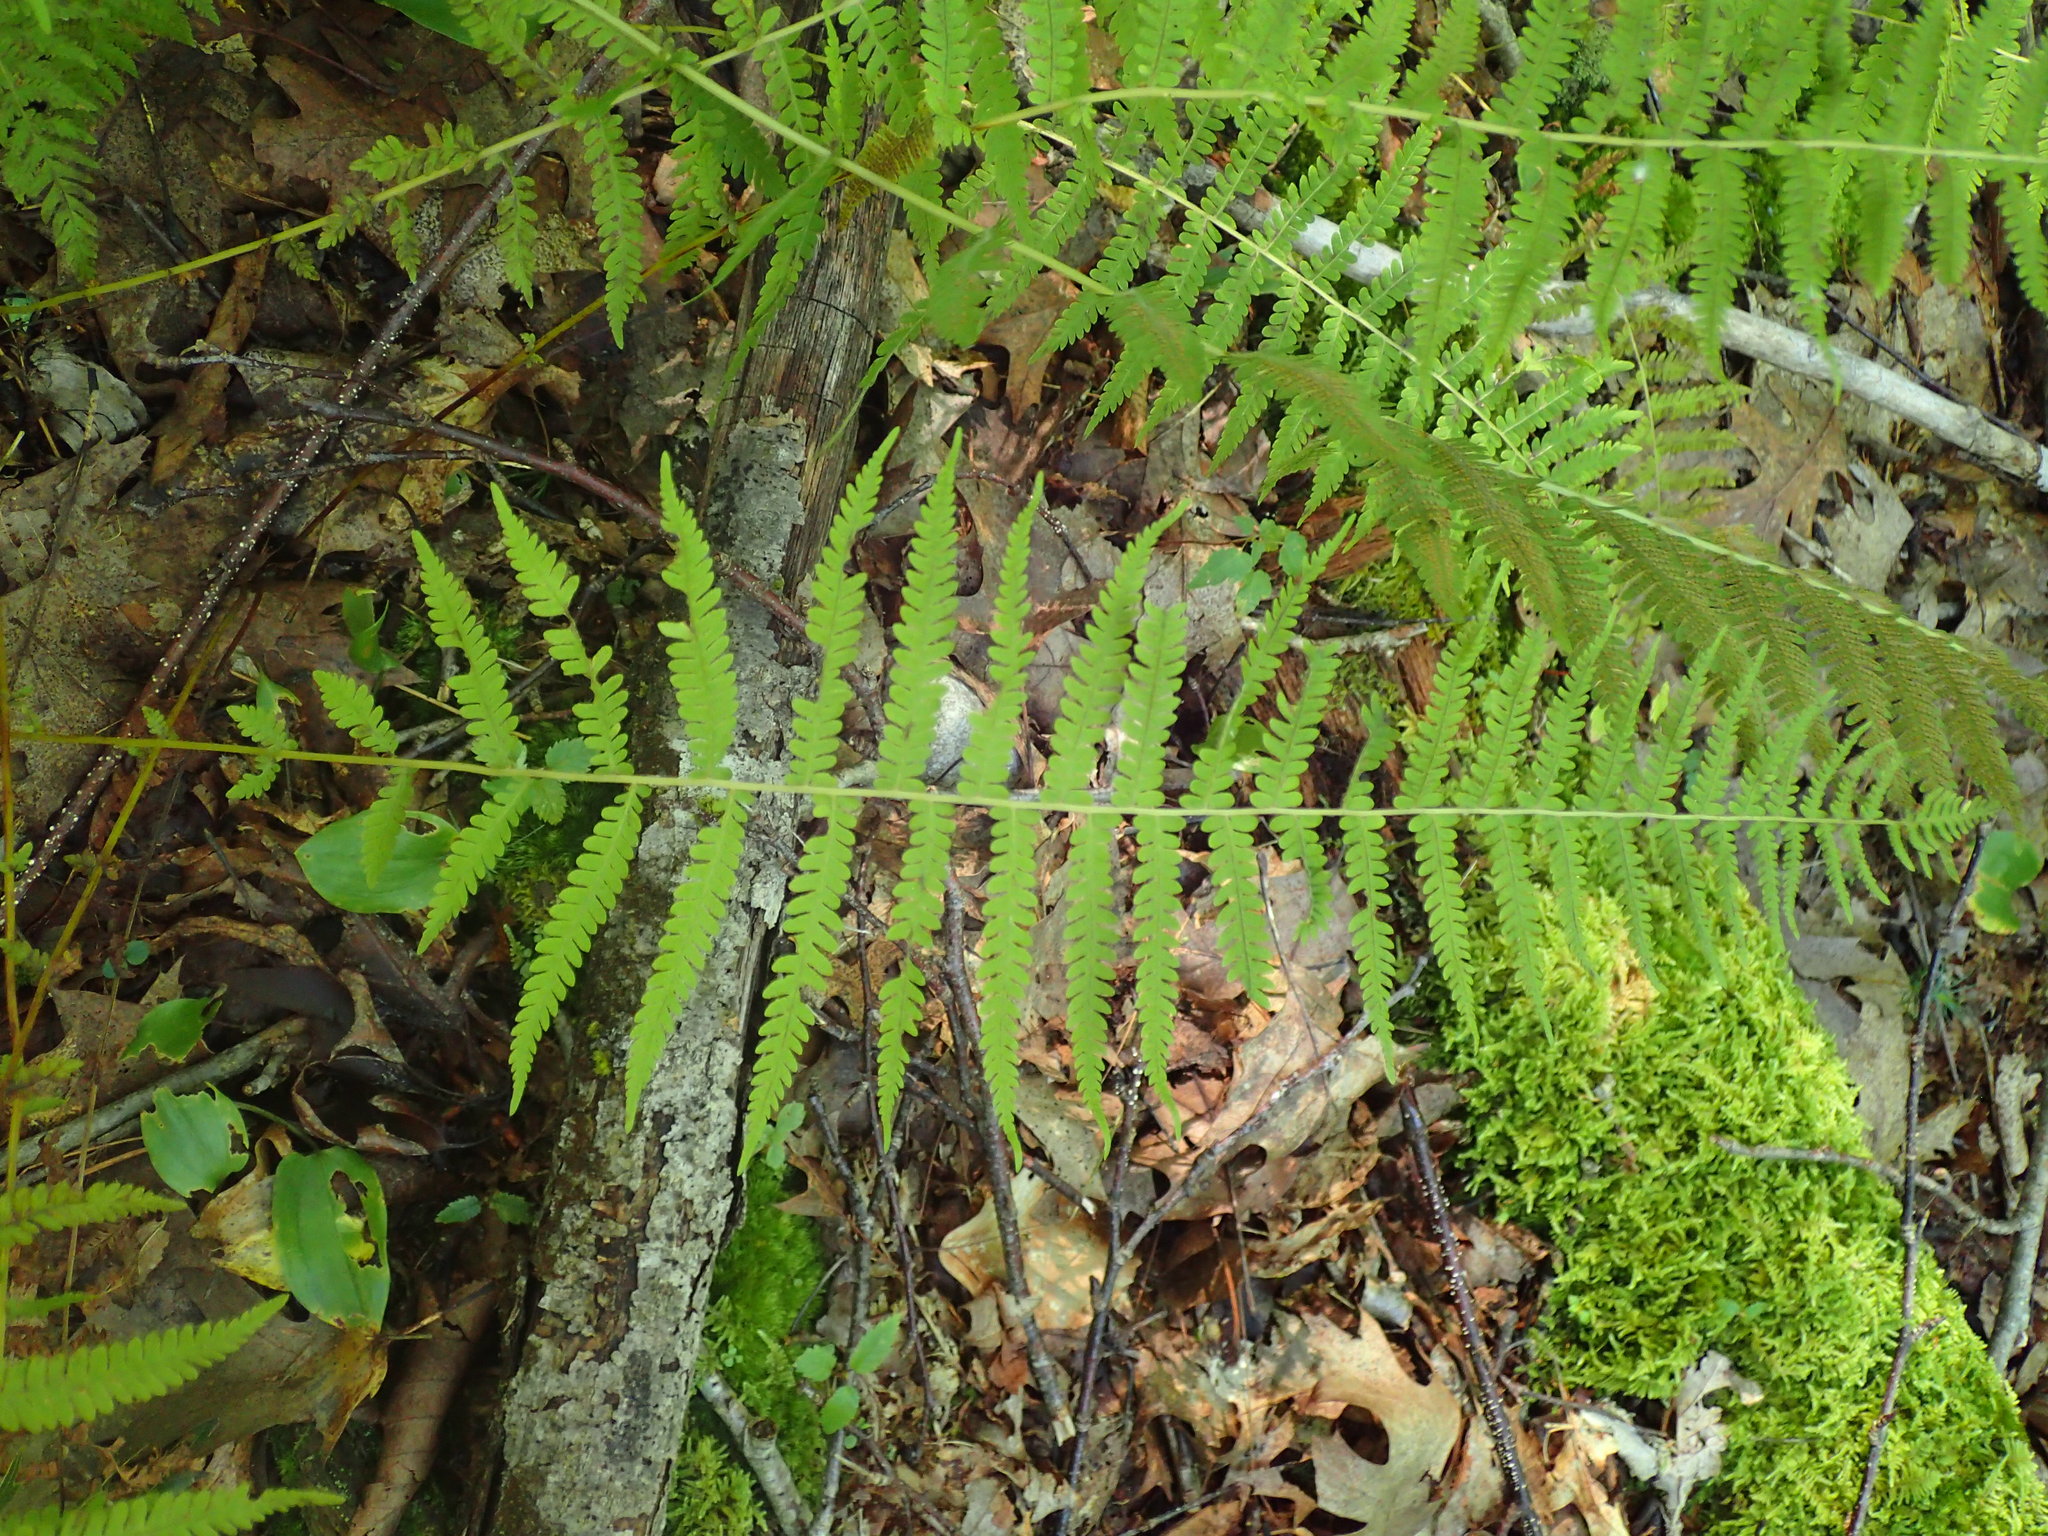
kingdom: Plantae
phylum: Tracheophyta
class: Polypodiopsida
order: Polypodiales
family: Thelypteridaceae
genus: Amauropelta
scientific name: Amauropelta noveboracensis
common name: New york fern
